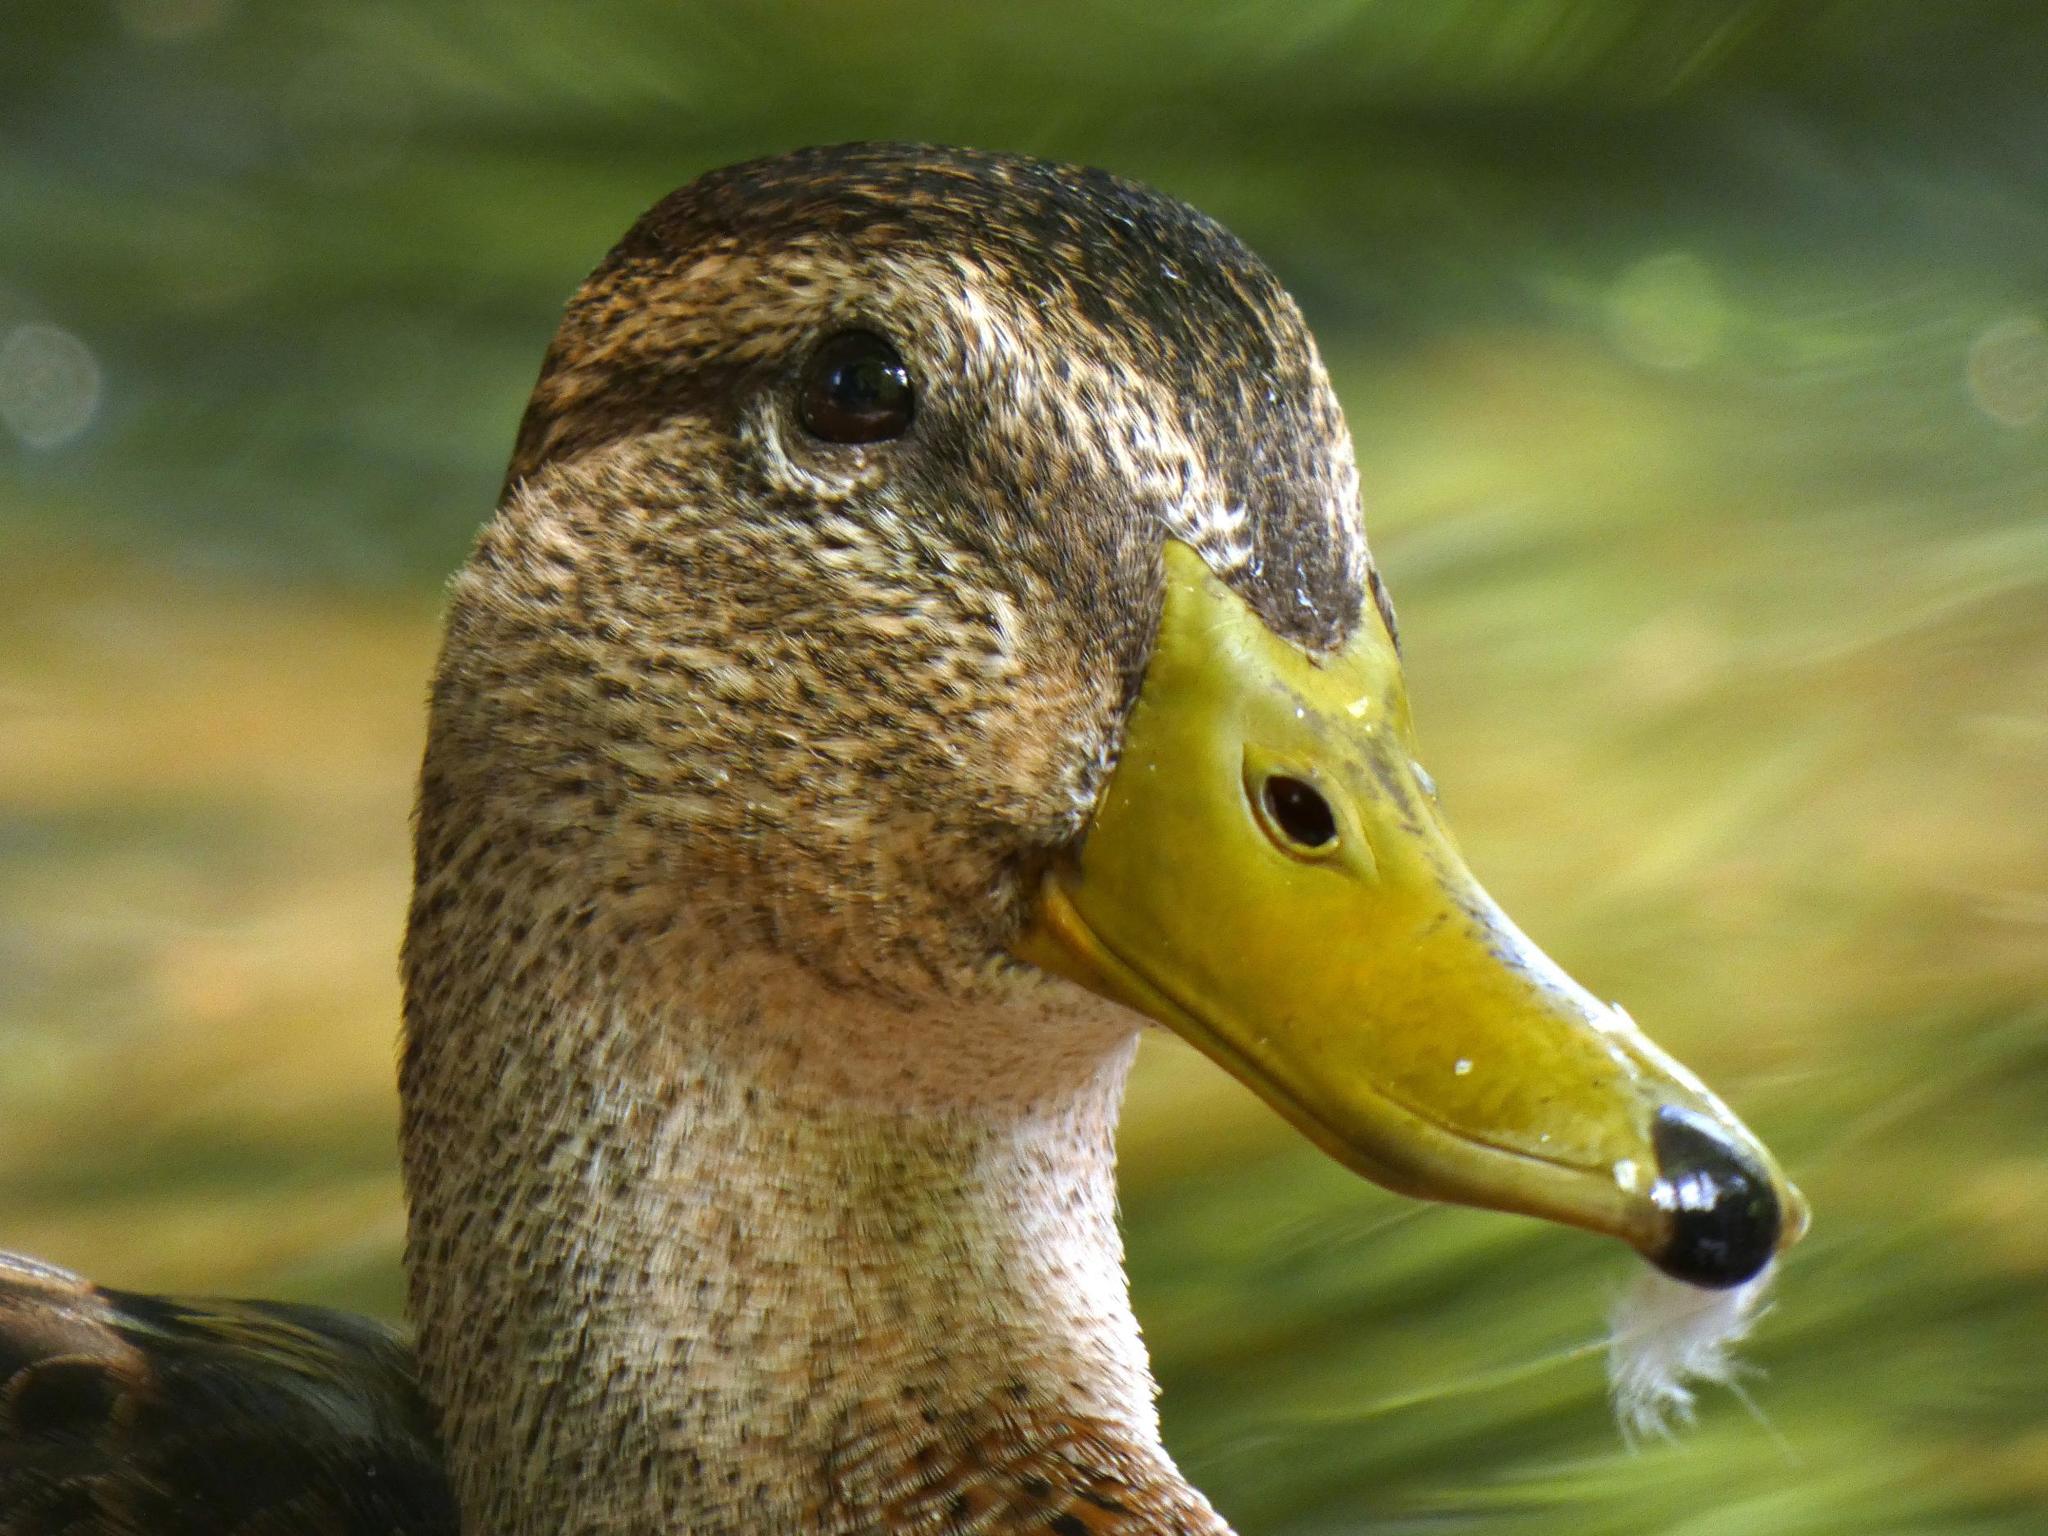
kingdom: Animalia
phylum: Chordata
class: Aves
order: Anseriformes
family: Anatidae
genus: Anas
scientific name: Anas platyrhynchos
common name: Mallard
